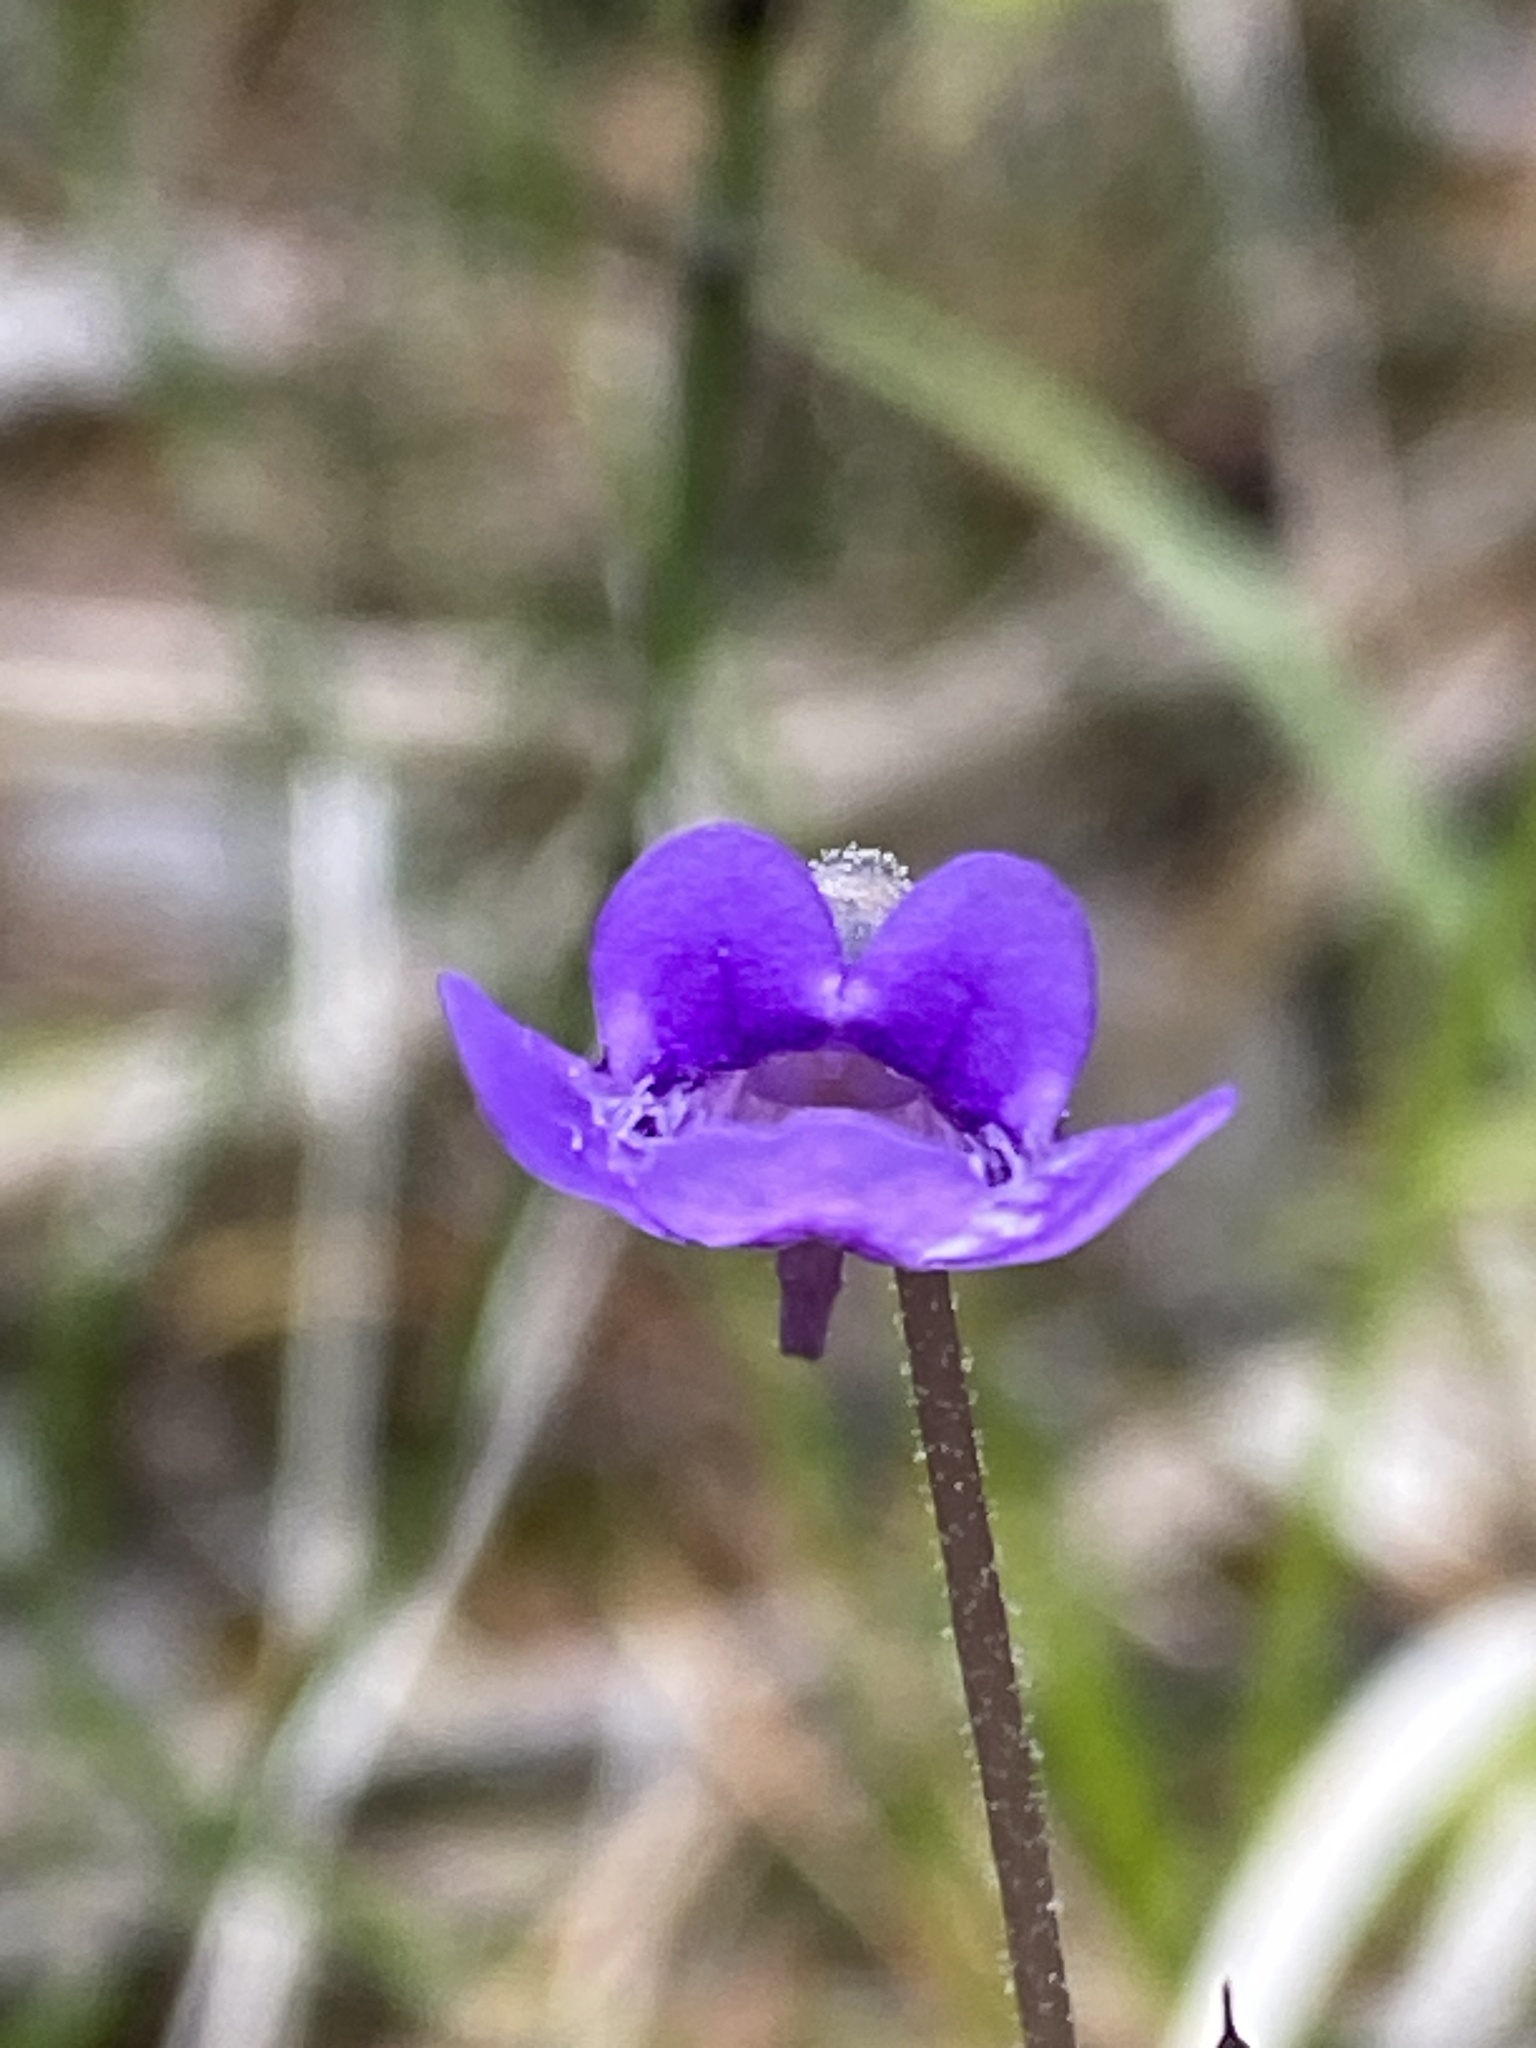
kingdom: Plantae
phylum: Tracheophyta
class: Magnoliopsida
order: Lamiales
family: Lentibulariaceae
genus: Pinguicula
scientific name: Pinguicula vulgaris
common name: Common butterwort
